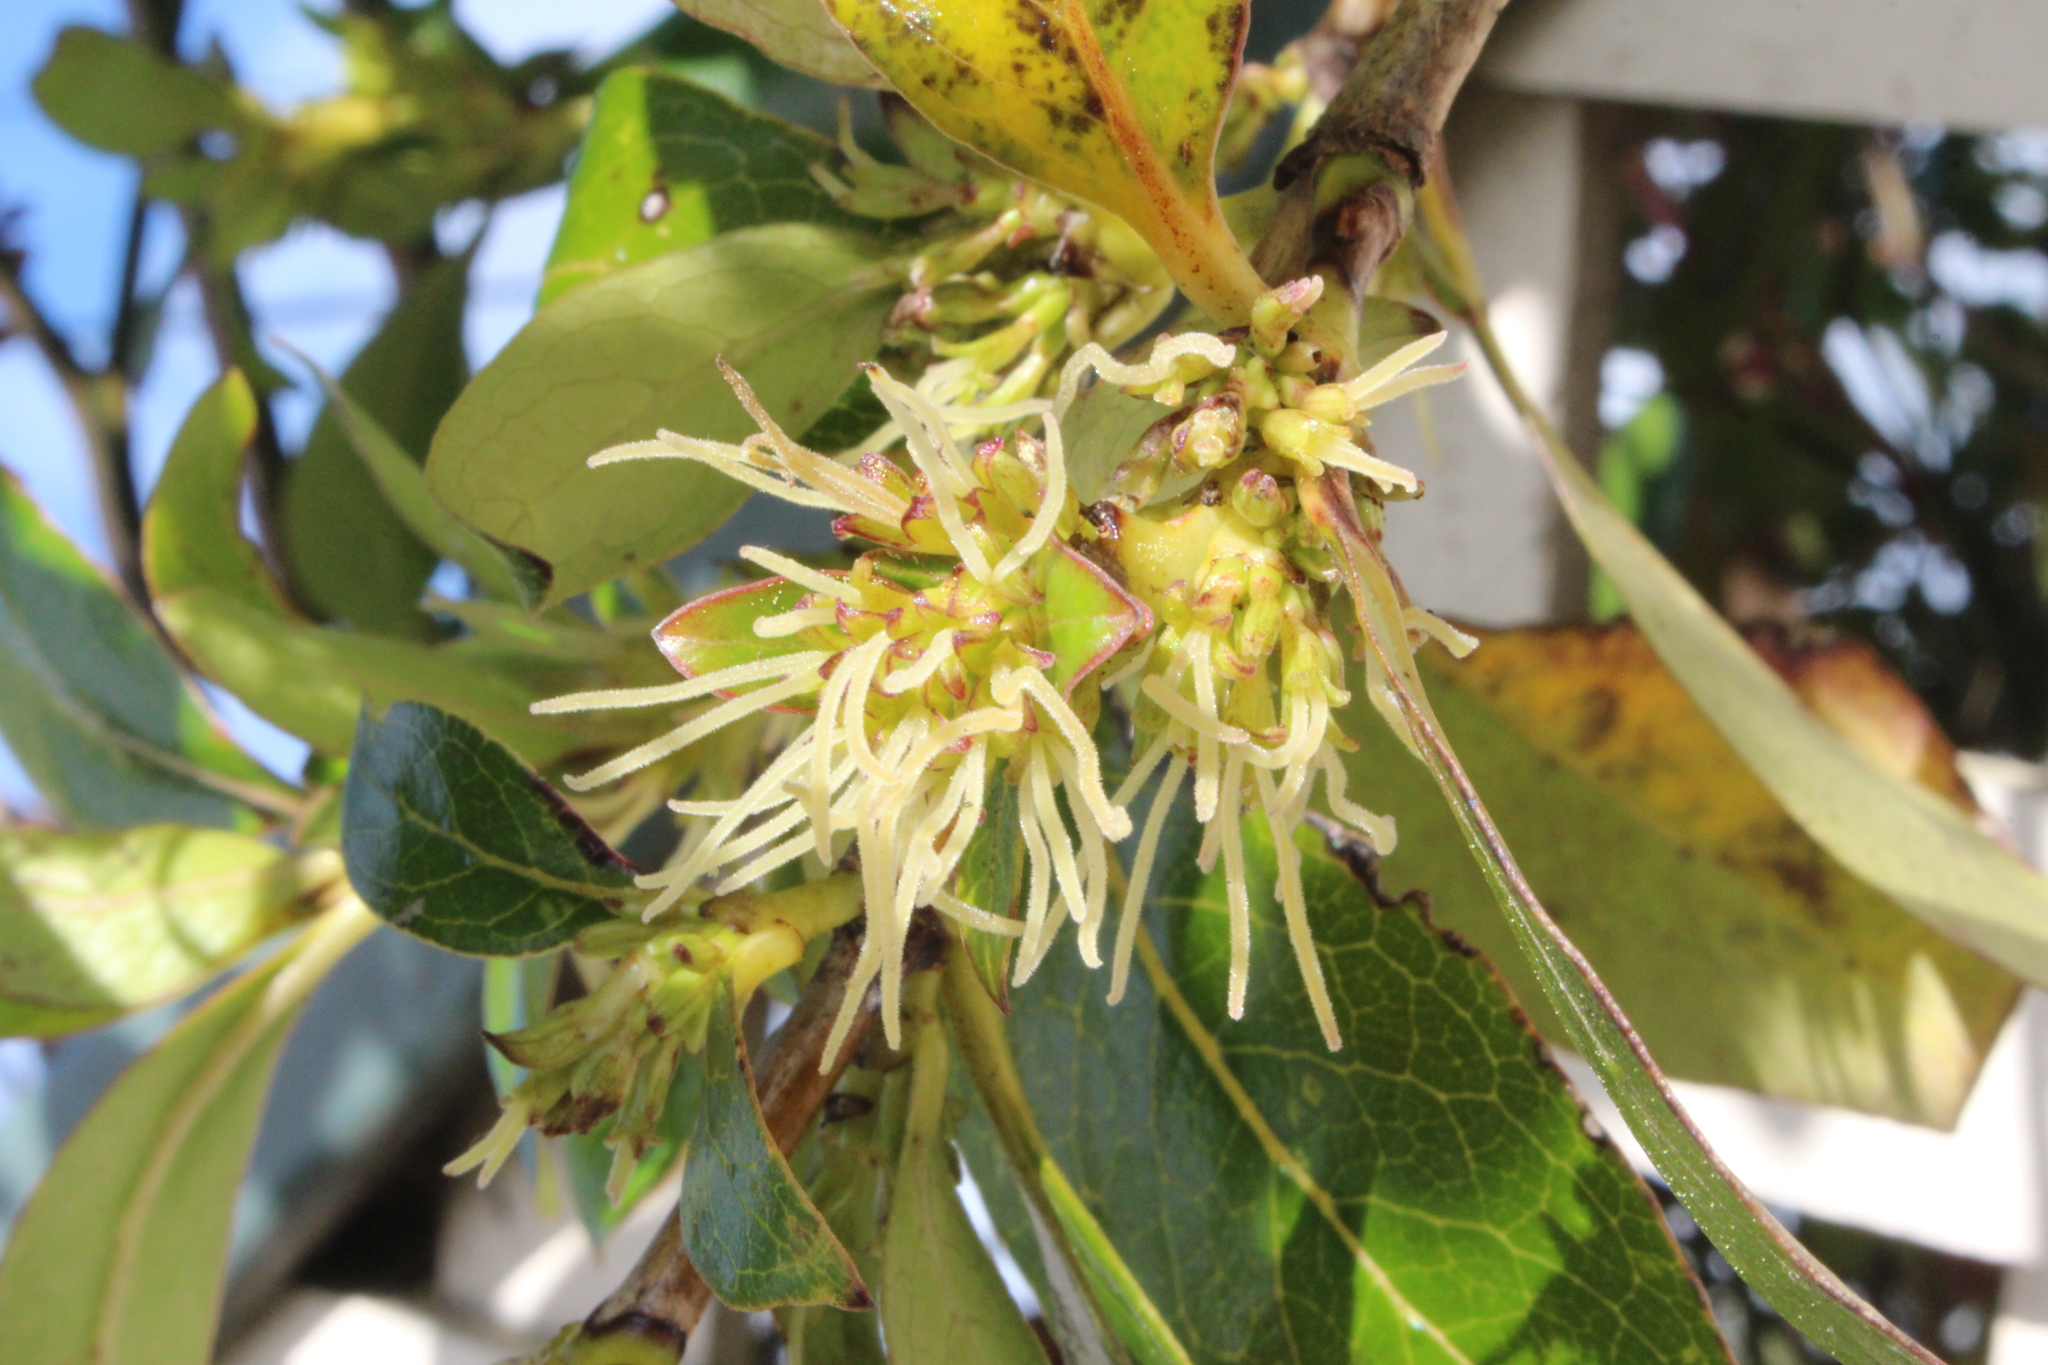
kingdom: Plantae
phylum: Tracheophyta
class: Magnoliopsida
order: Gentianales
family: Rubiaceae
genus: Coprosma
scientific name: Coprosma robusta
